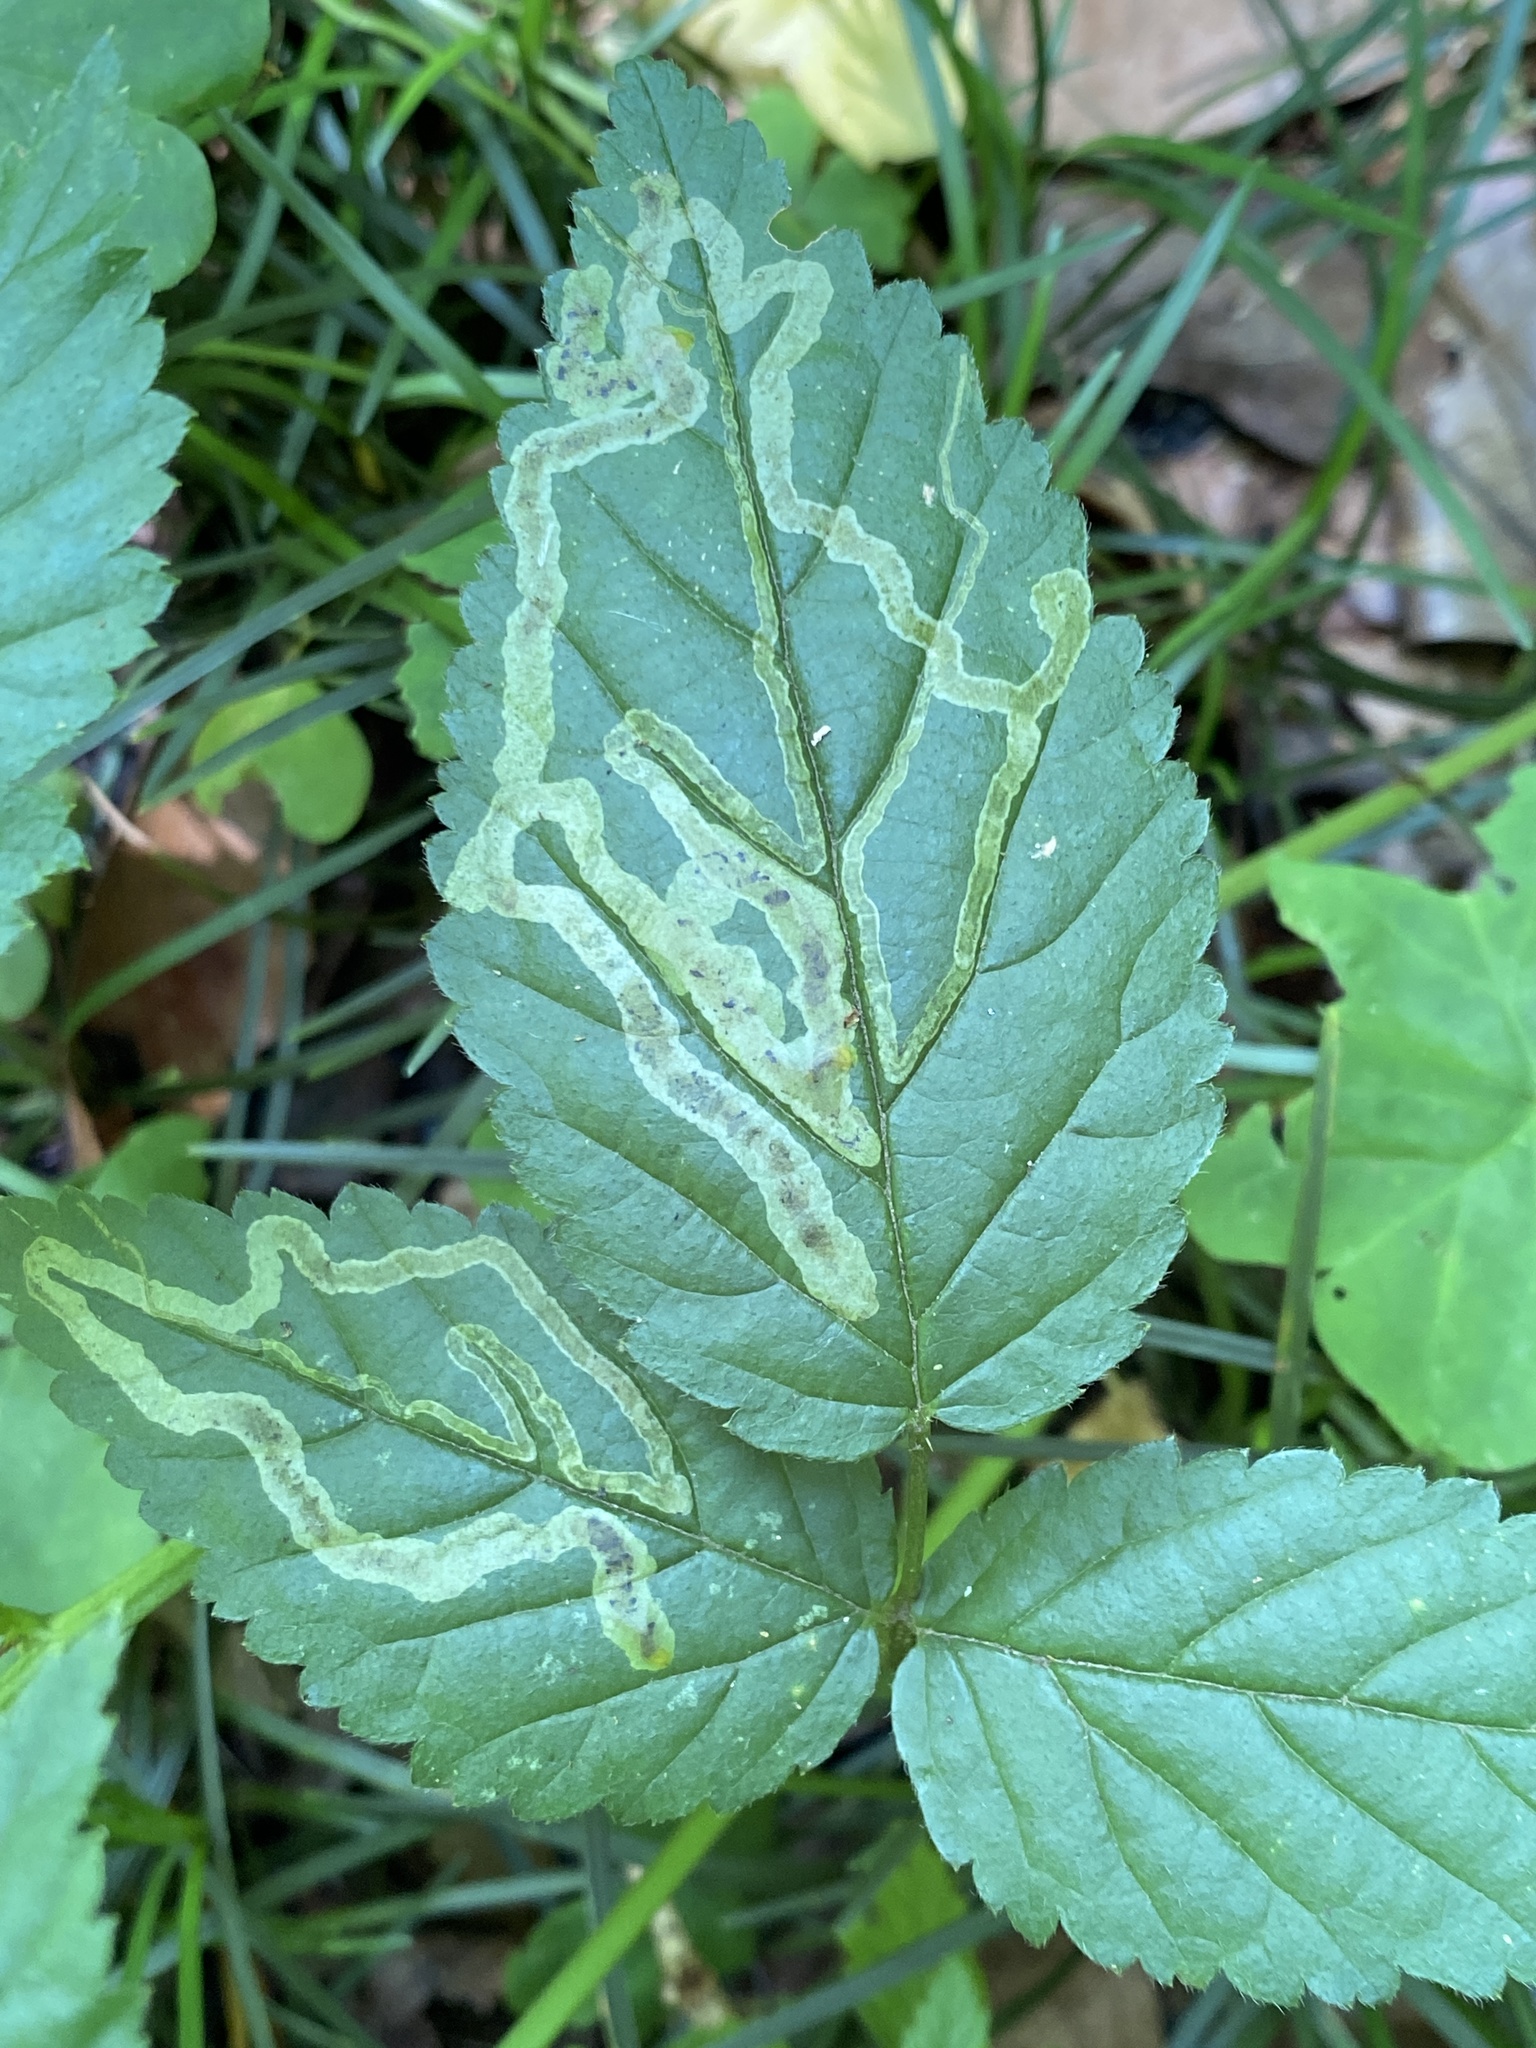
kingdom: Animalia
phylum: Arthropoda
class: Insecta
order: Diptera
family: Agromyzidae
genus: Agromyza
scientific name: Agromyza vockerothi
